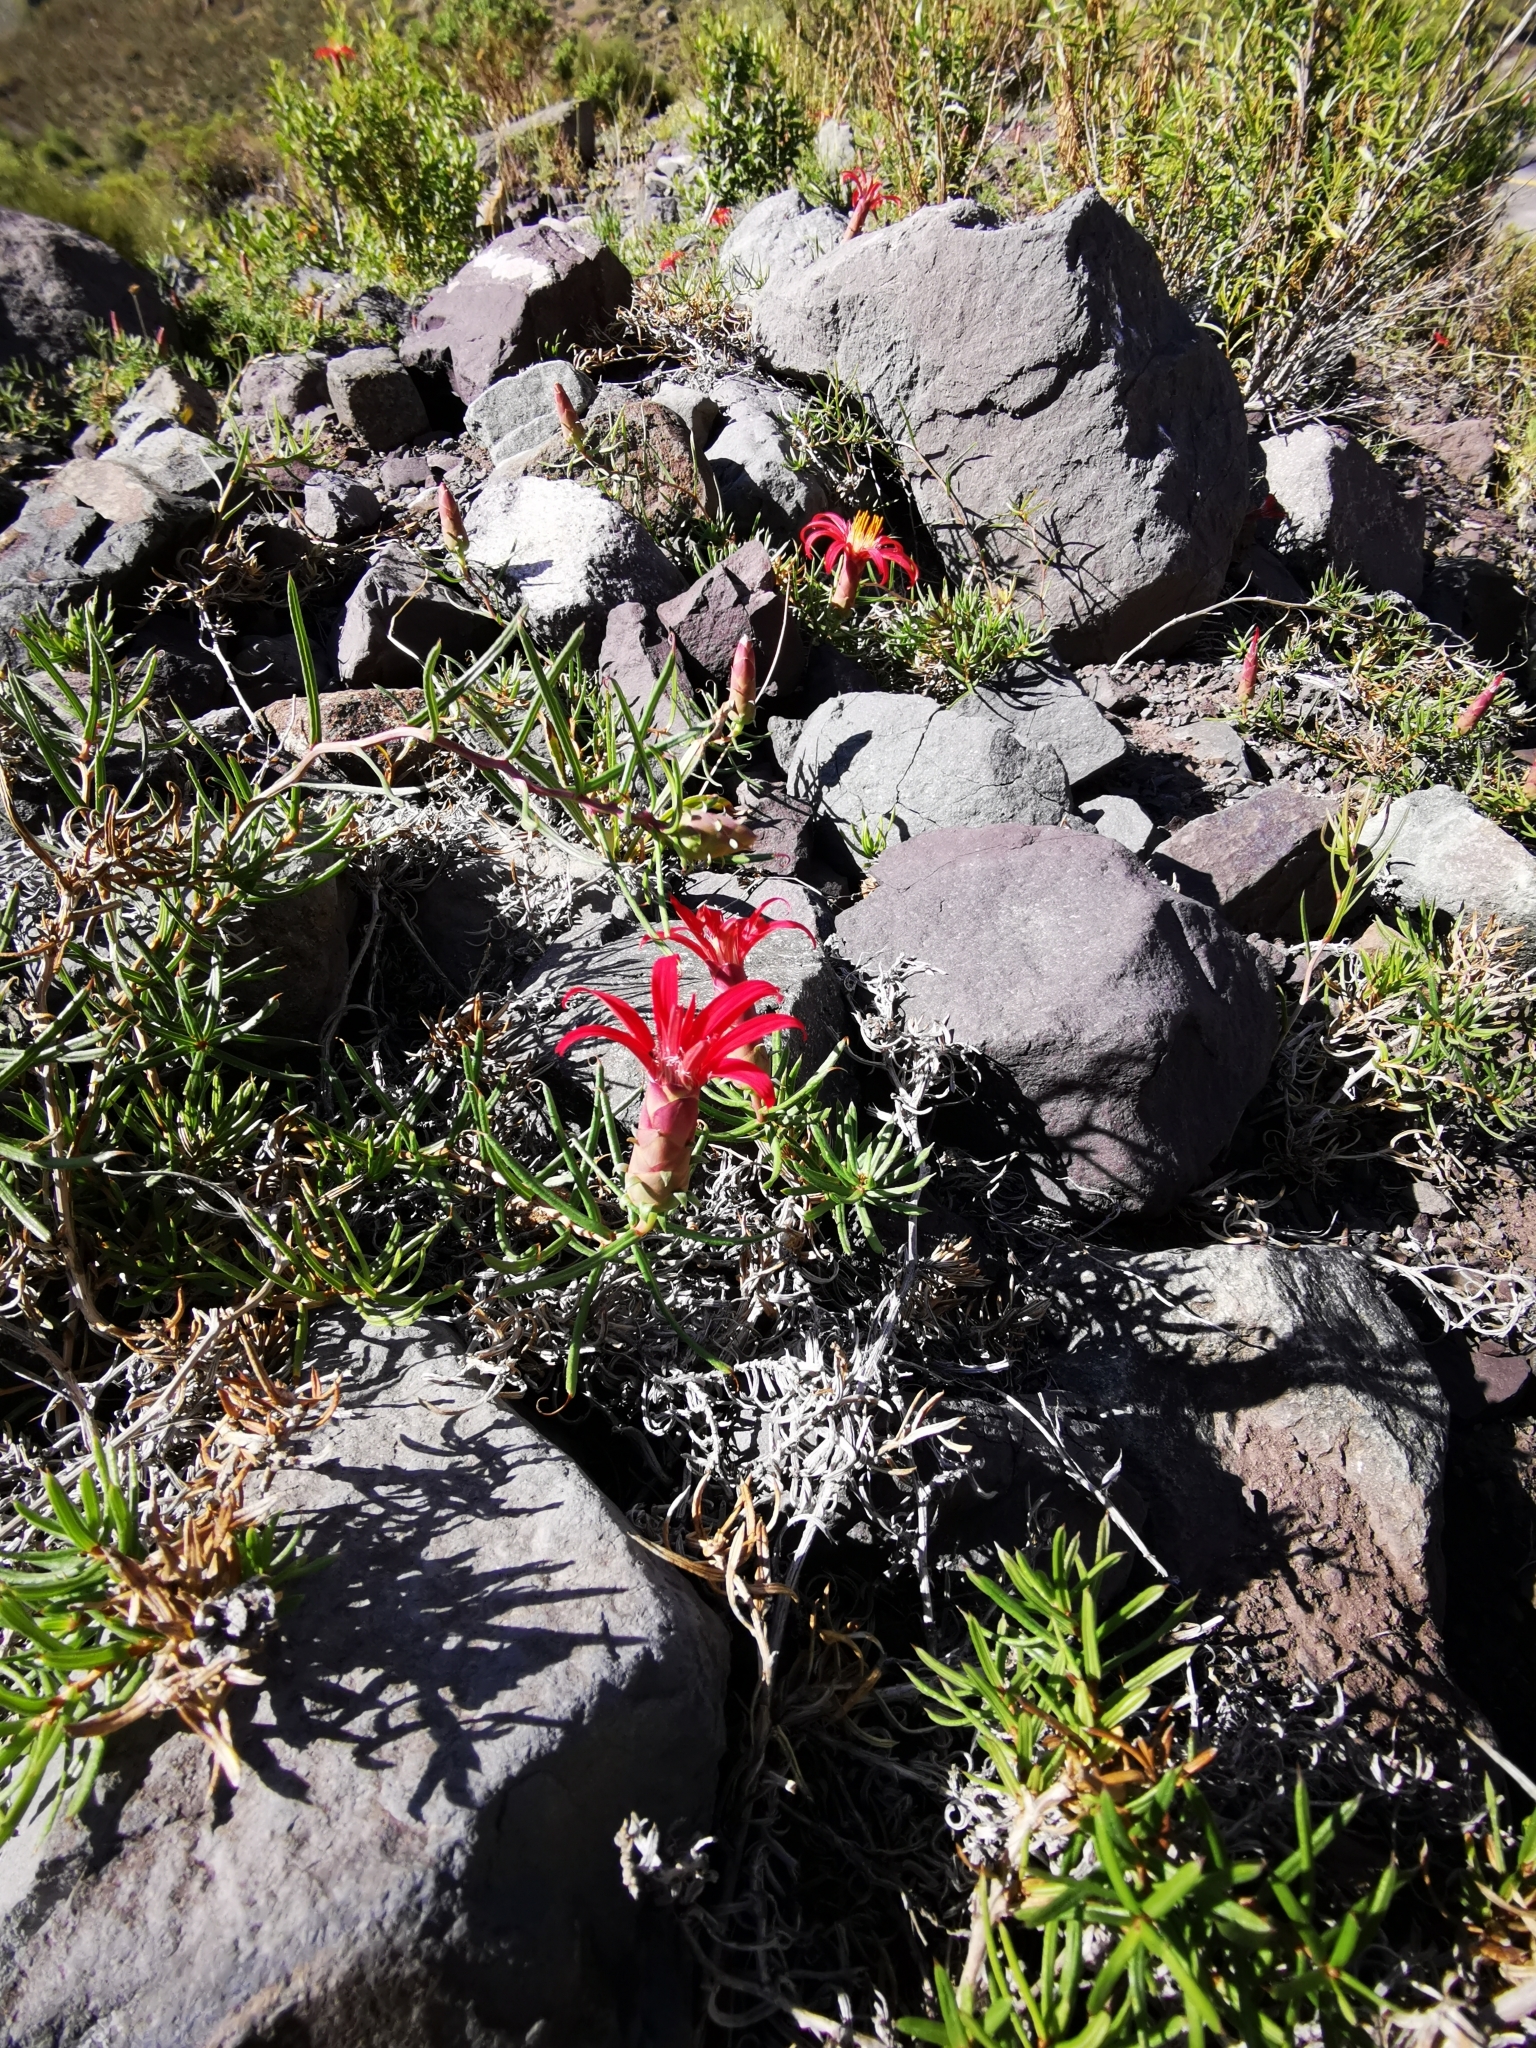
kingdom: Plantae
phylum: Tracheophyta
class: Magnoliopsida
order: Asterales
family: Asteraceae
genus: Mutisia
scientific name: Mutisia subulata
